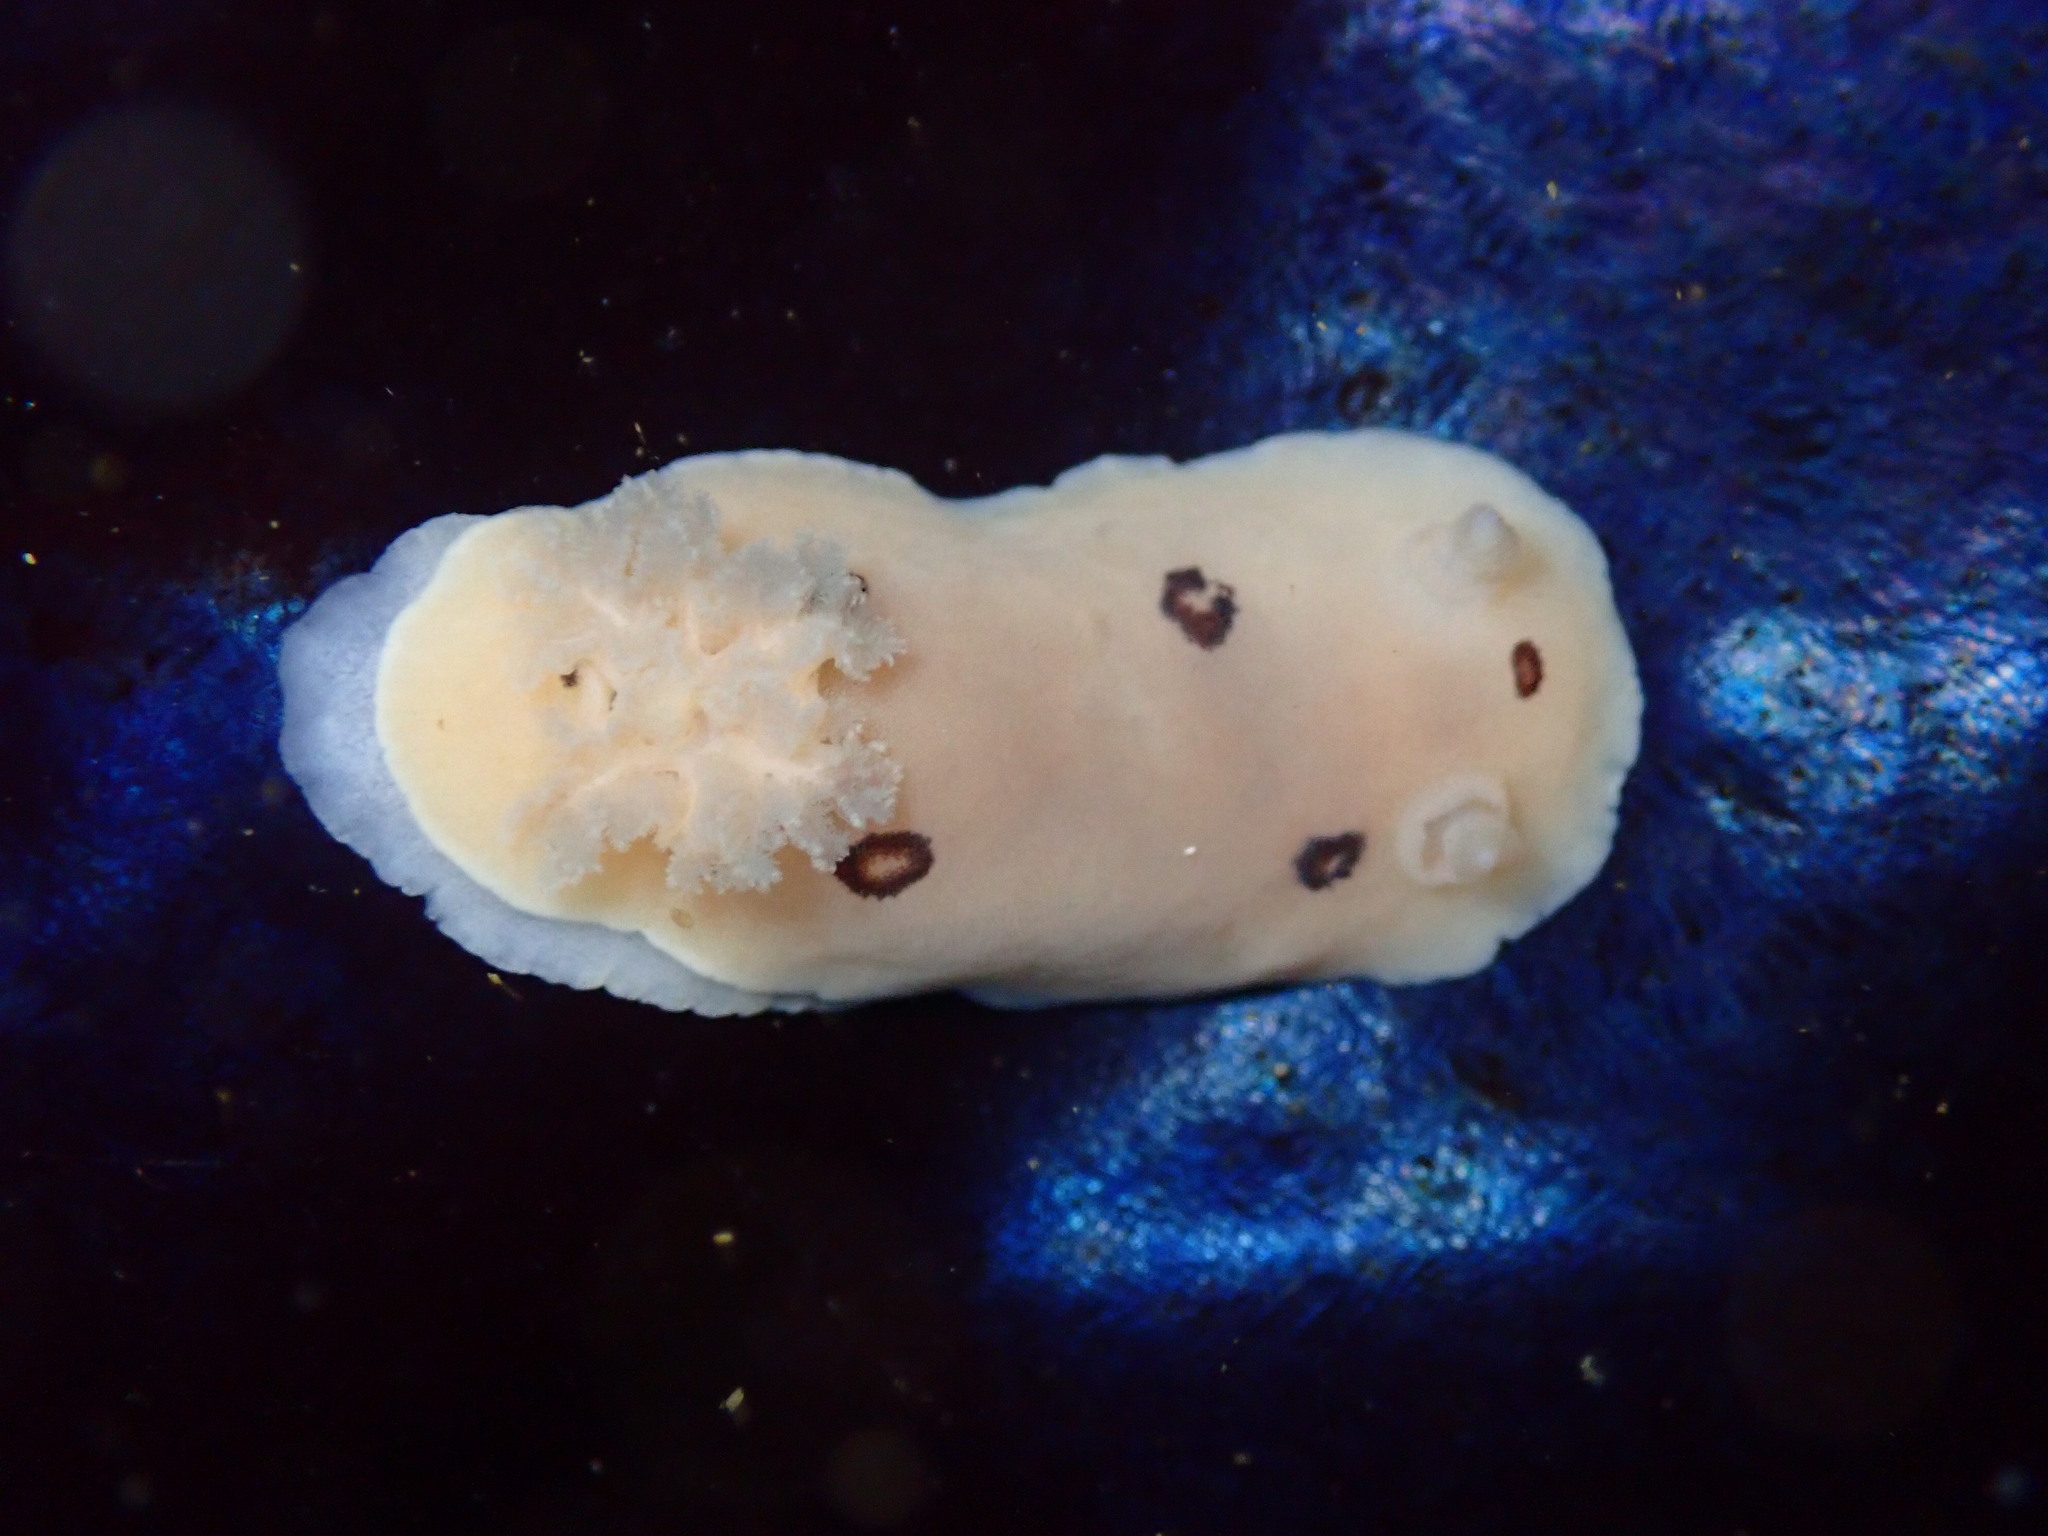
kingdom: Animalia
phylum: Mollusca
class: Gastropoda
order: Nudibranchia
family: Discodorididae
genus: Diaulula
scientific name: Diaulula sandiegensis
